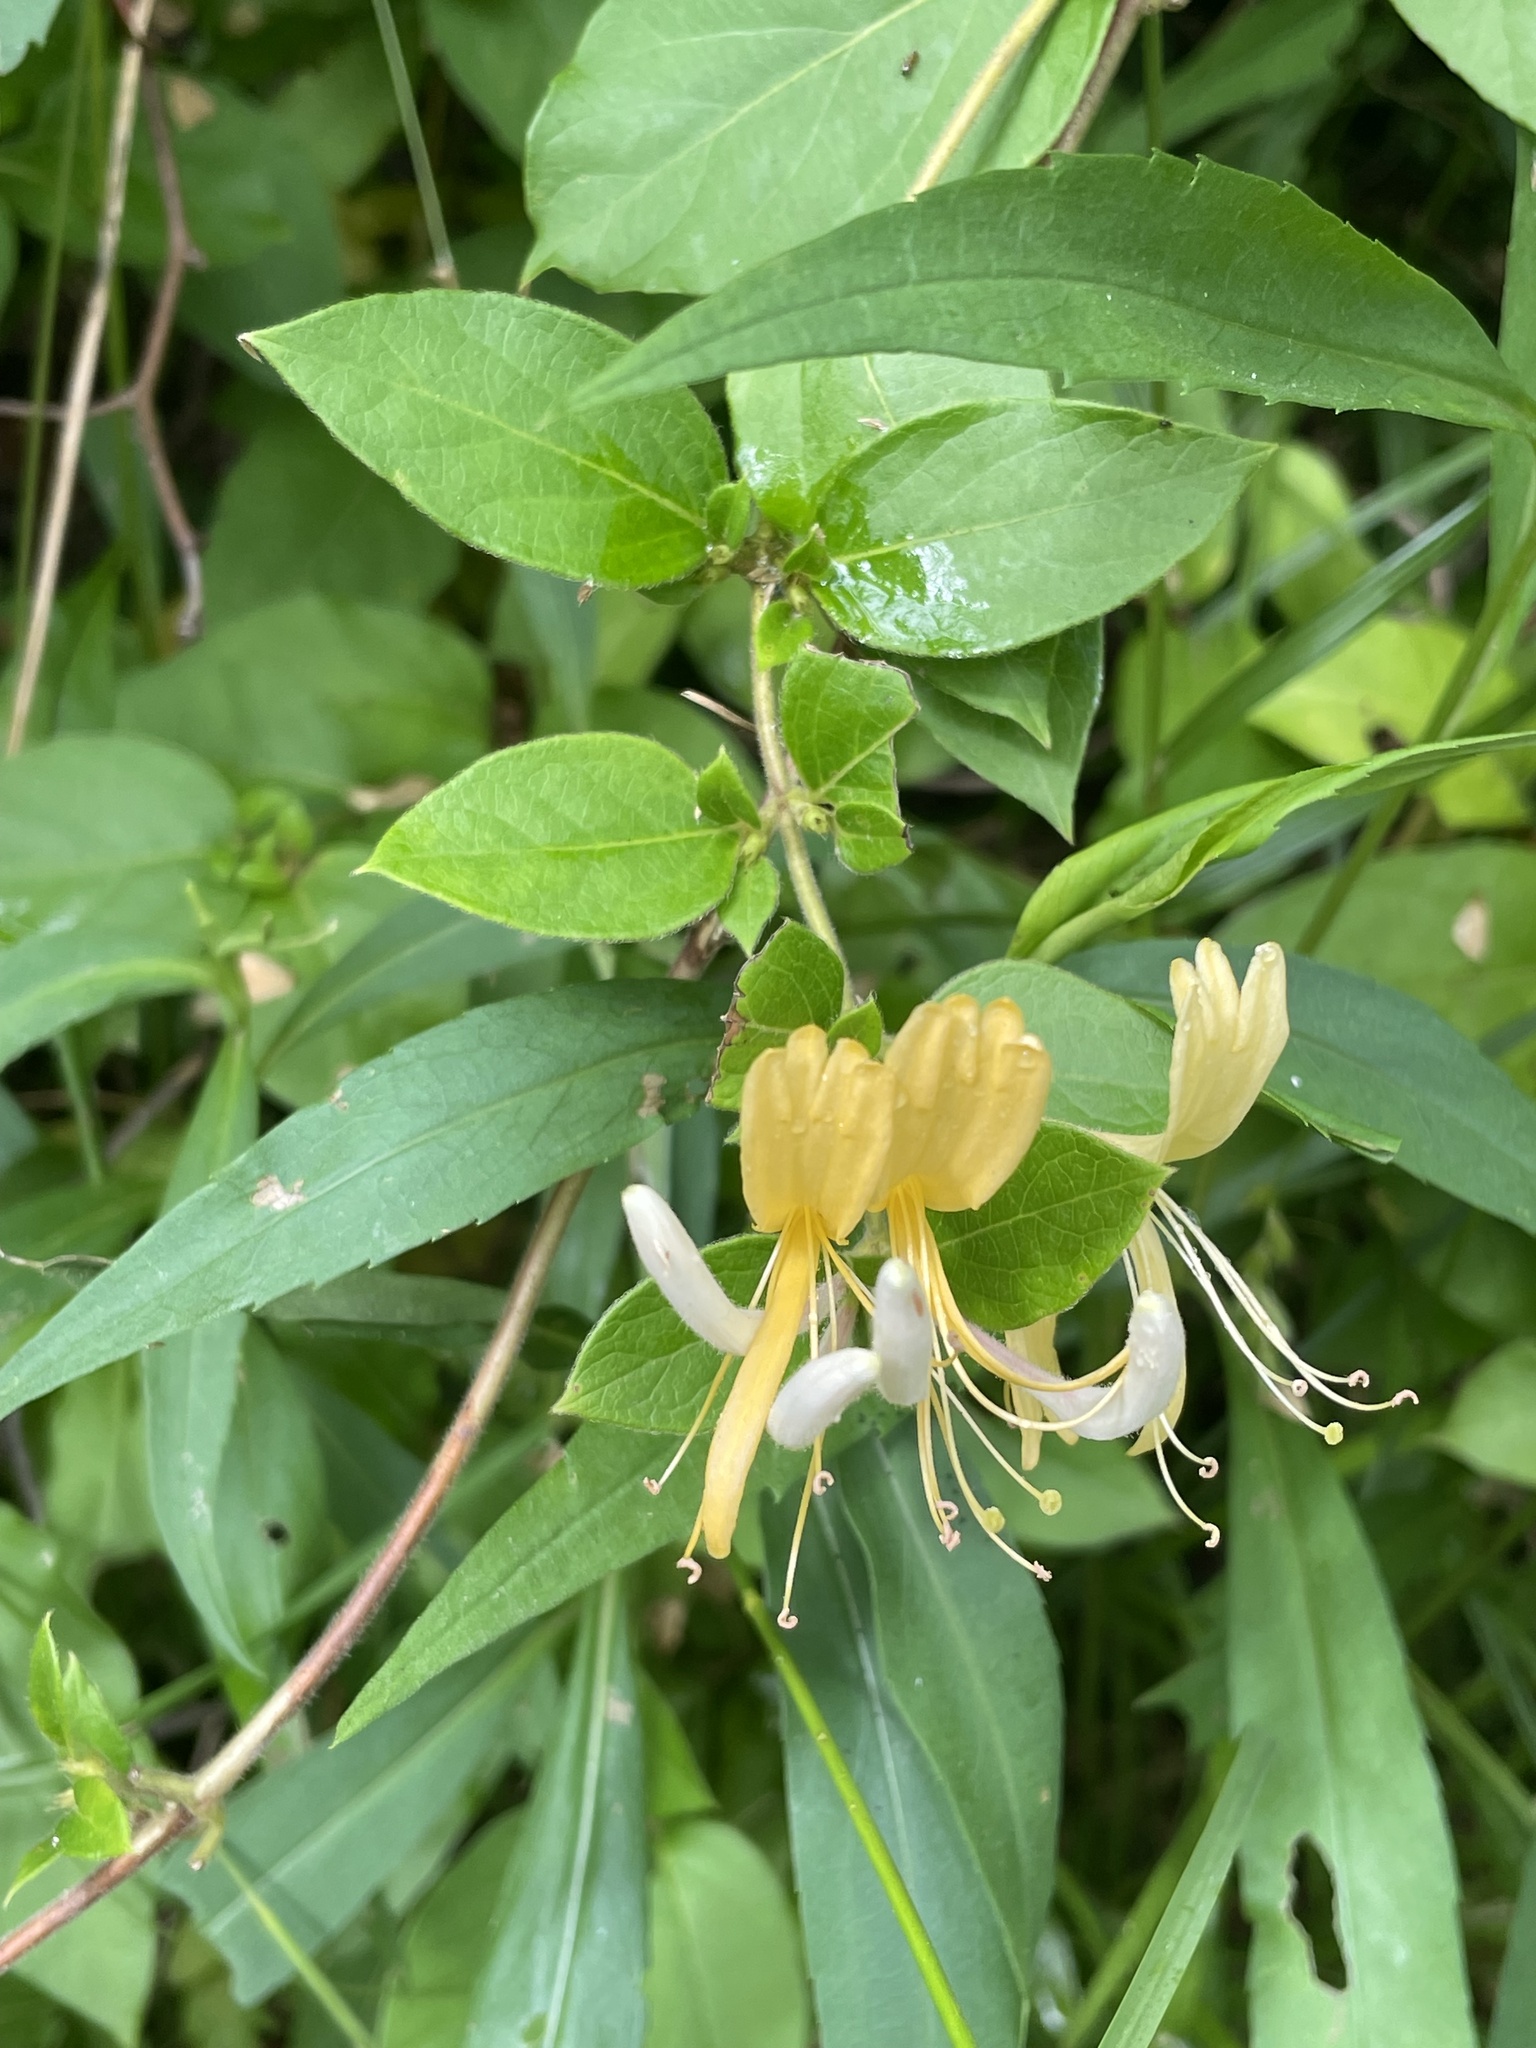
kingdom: Plantae
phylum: Tracheophyta
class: Magnoliopsida
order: Dipsacales
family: Caprifoliaceae
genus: Lonicera
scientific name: Lonicera japonica
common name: Japanese honeysuckle
